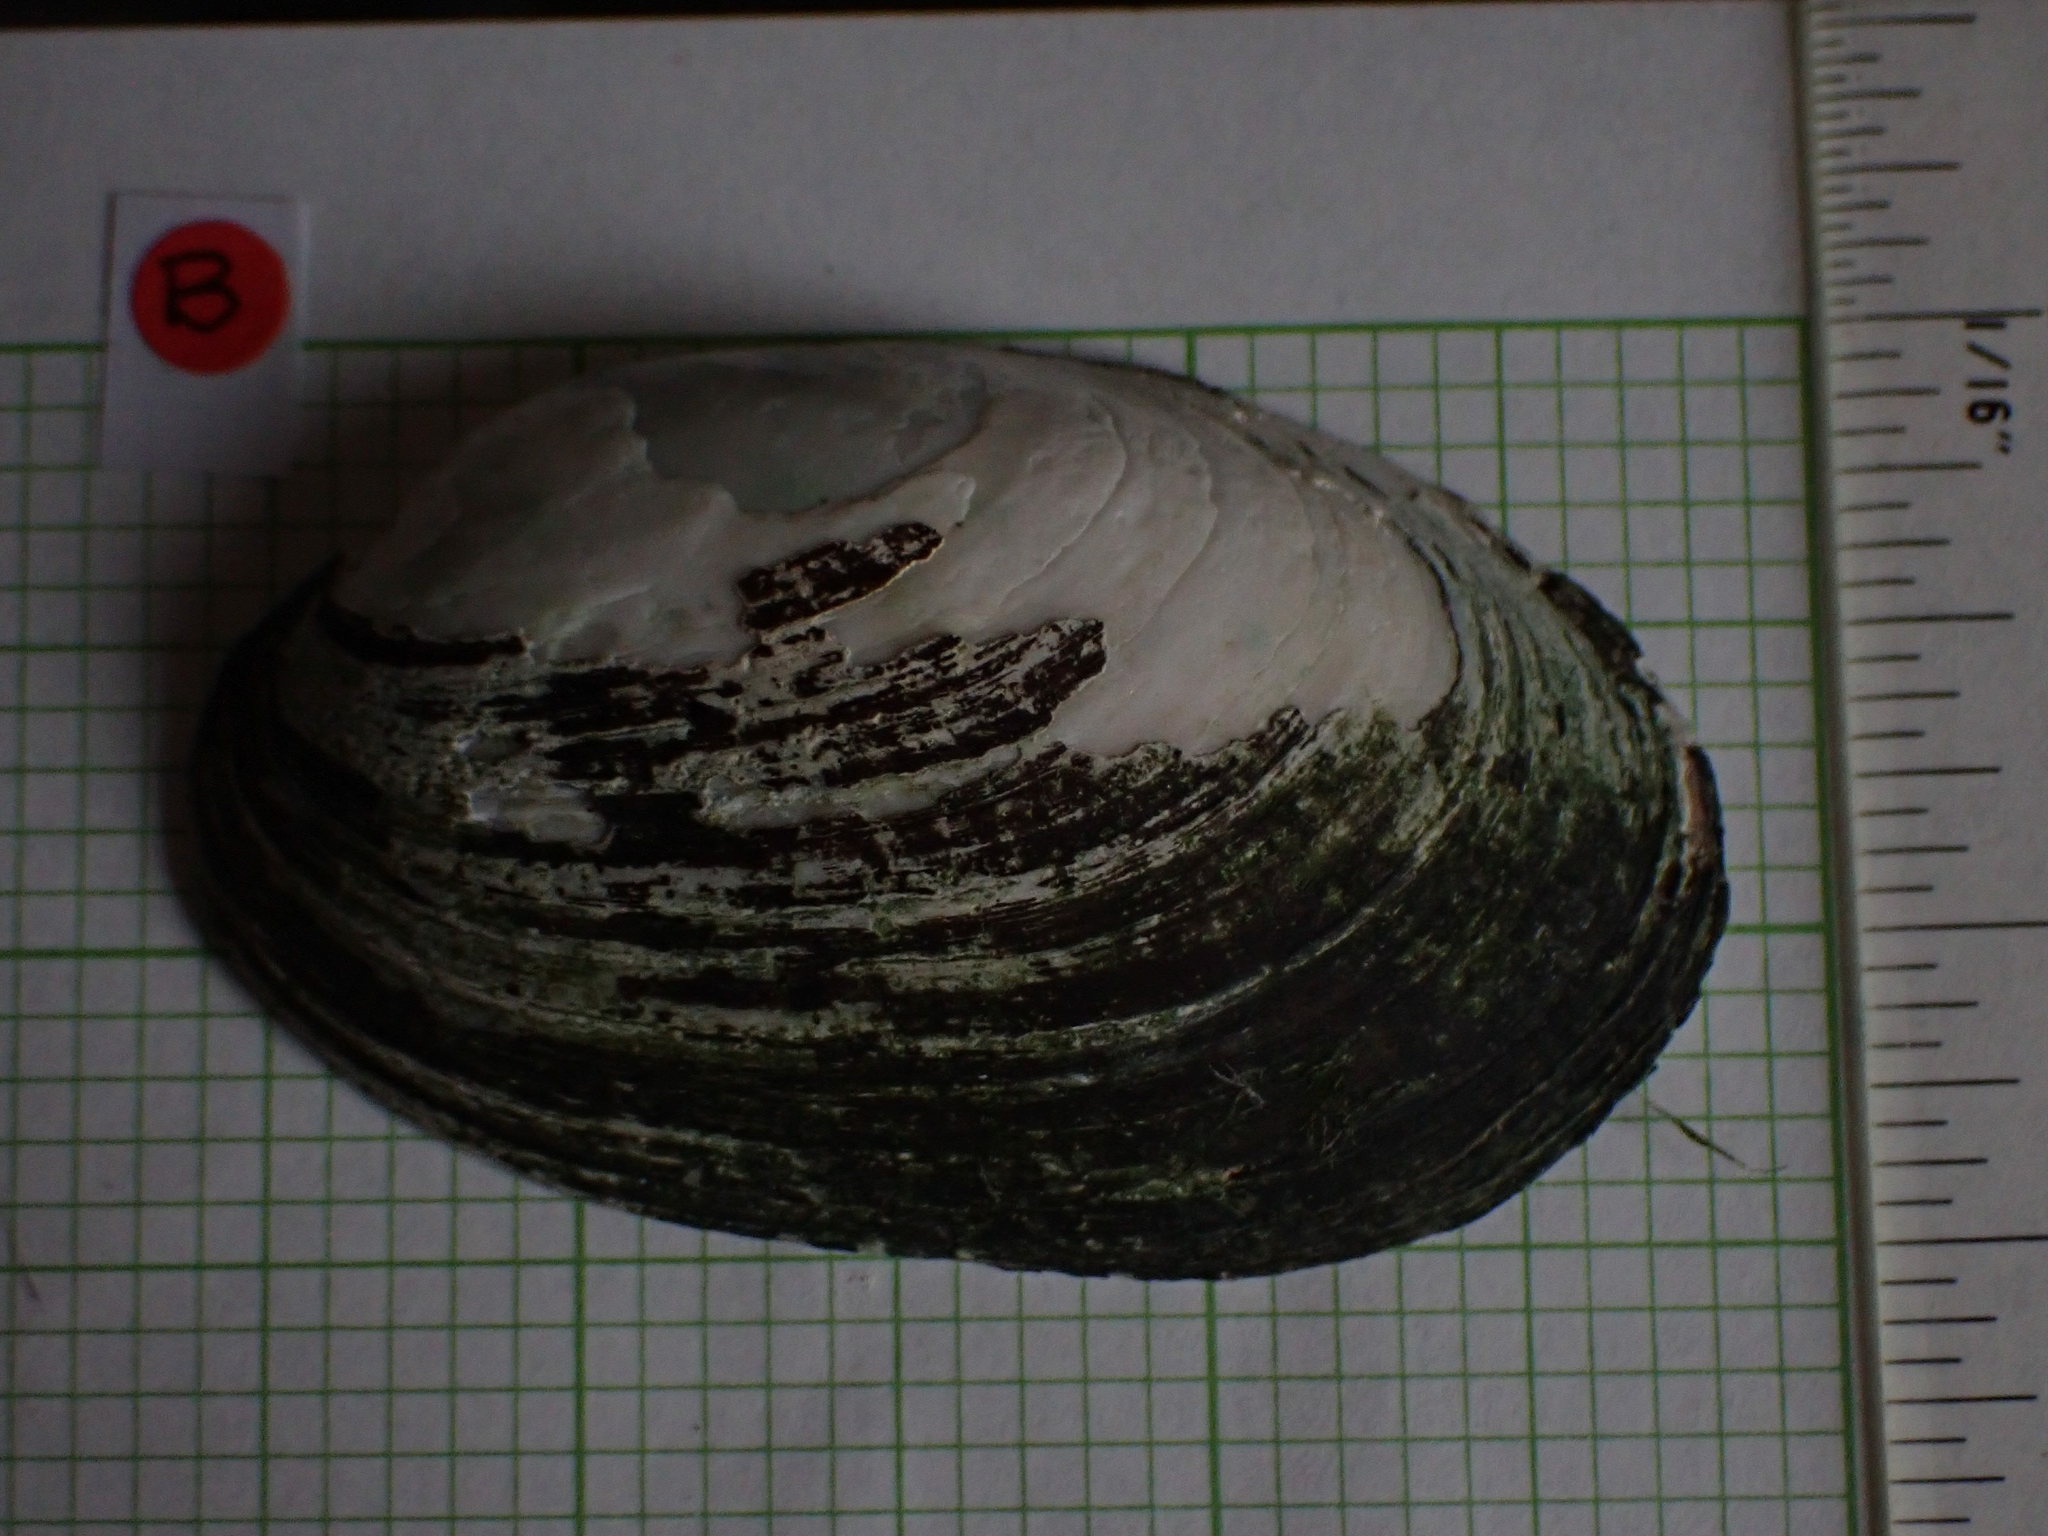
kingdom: Animalia
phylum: Mollusca
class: Bivalvia
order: Unionida
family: Unionidae
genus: Lampsilis
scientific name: Lampsilis siliquoidea
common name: Fatmucket
